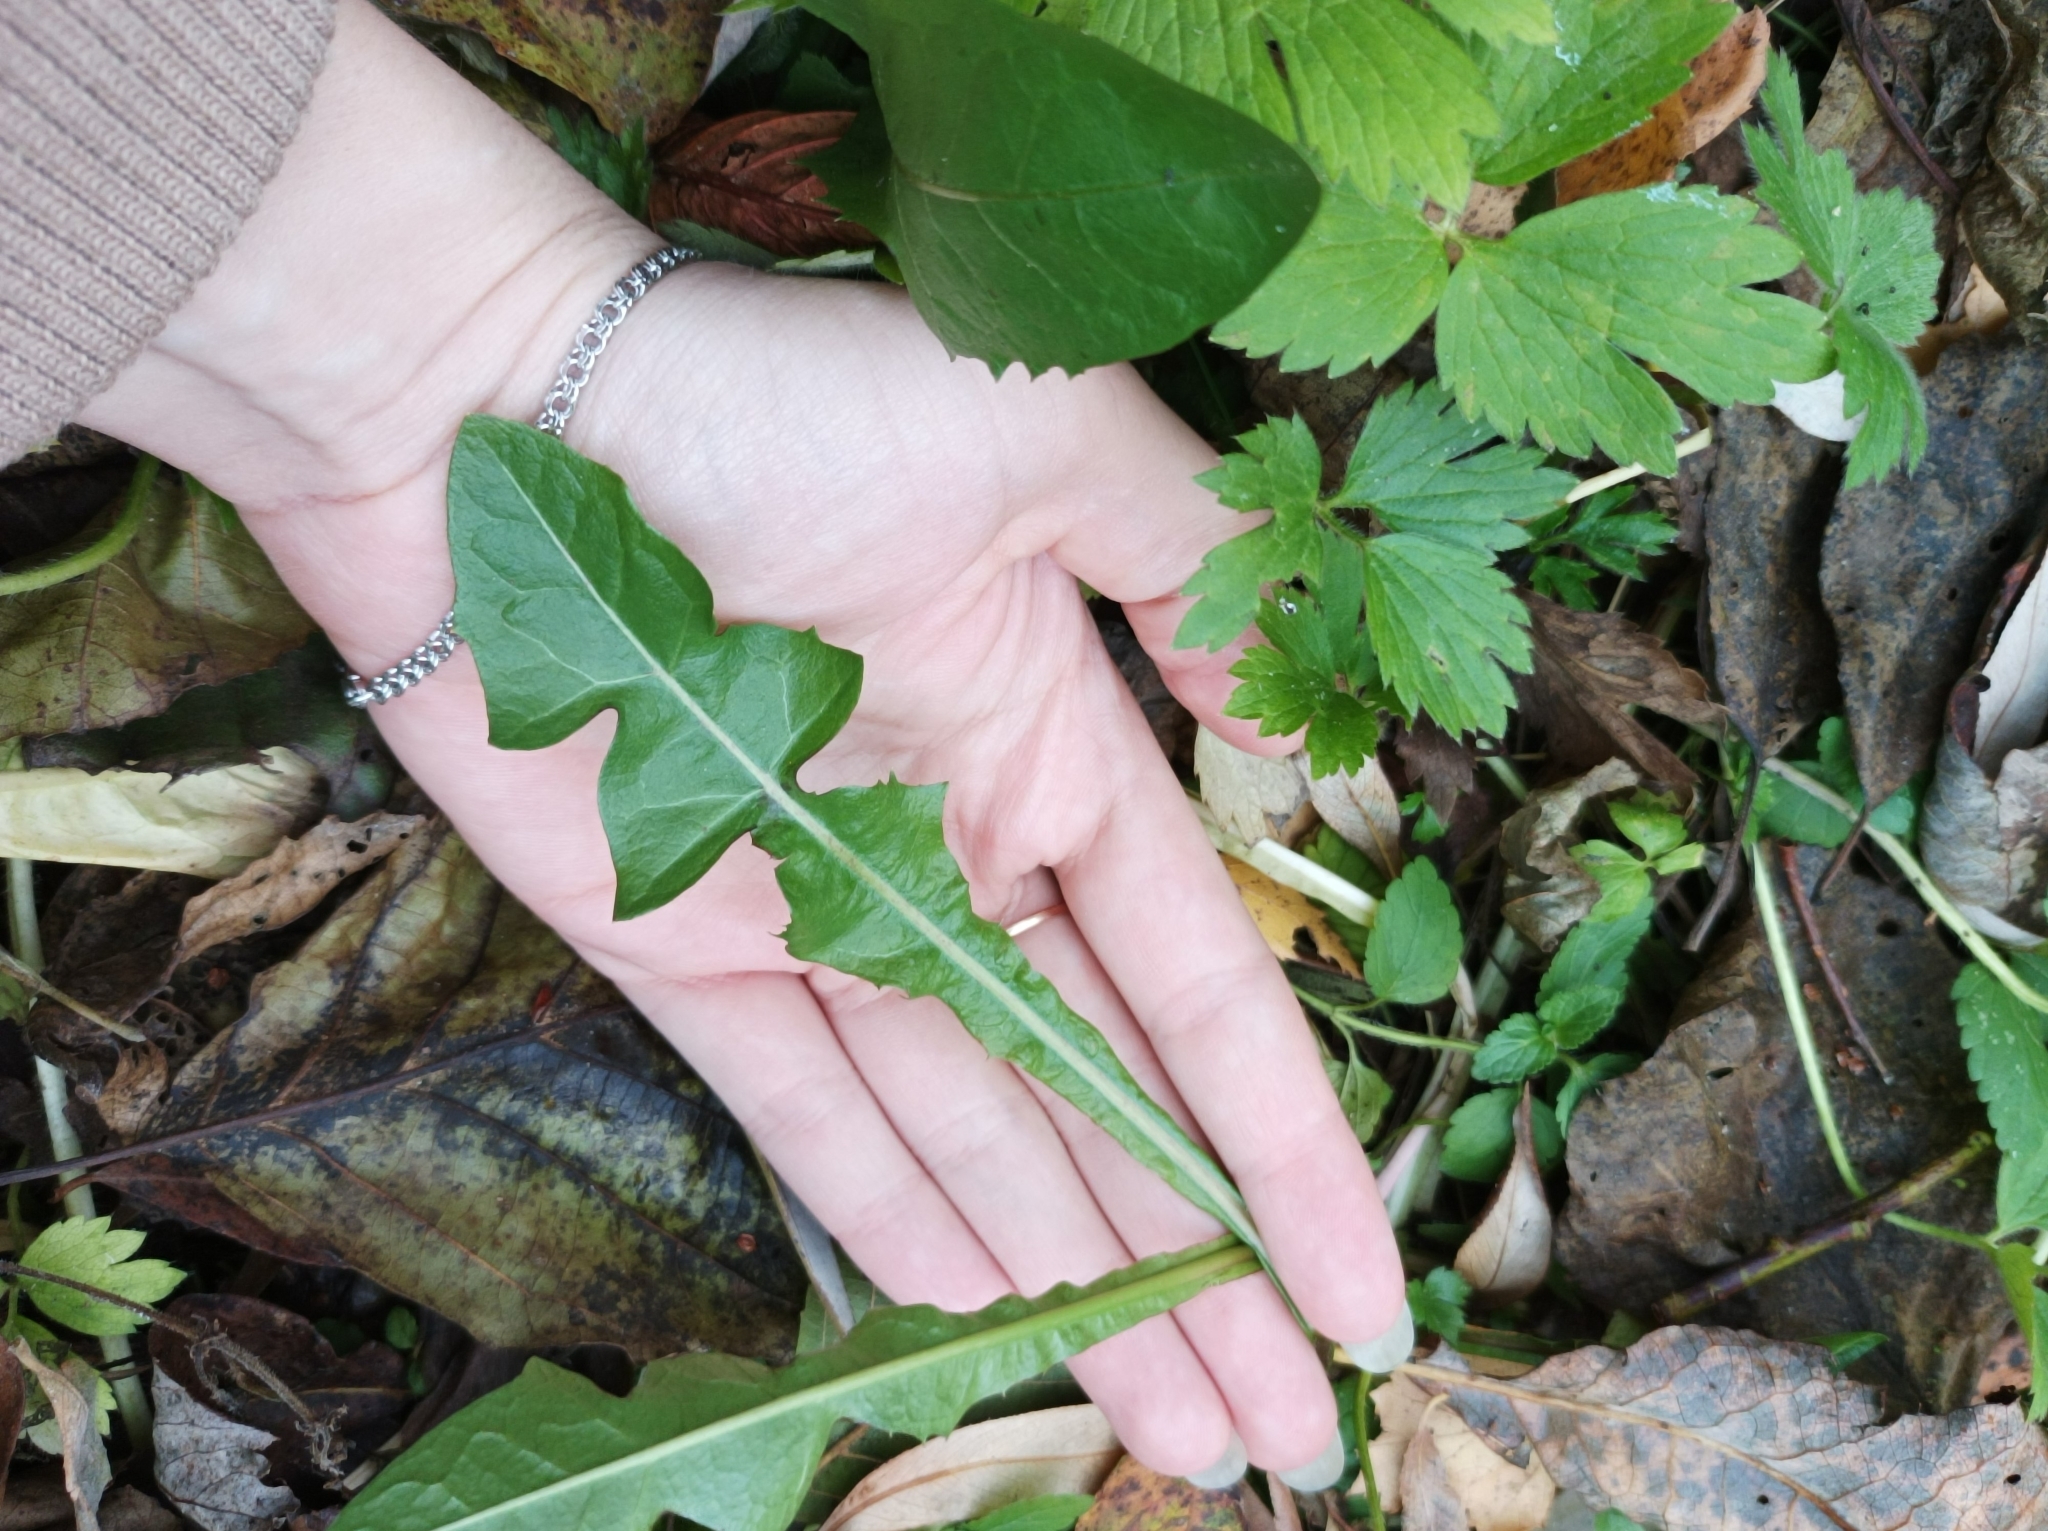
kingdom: Plantae
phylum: Tracheophyta
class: Magnoliopsida
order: Asterales
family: Asteraceae
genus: Taraxacum
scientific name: Taraxacum officinale
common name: Common dandelion
